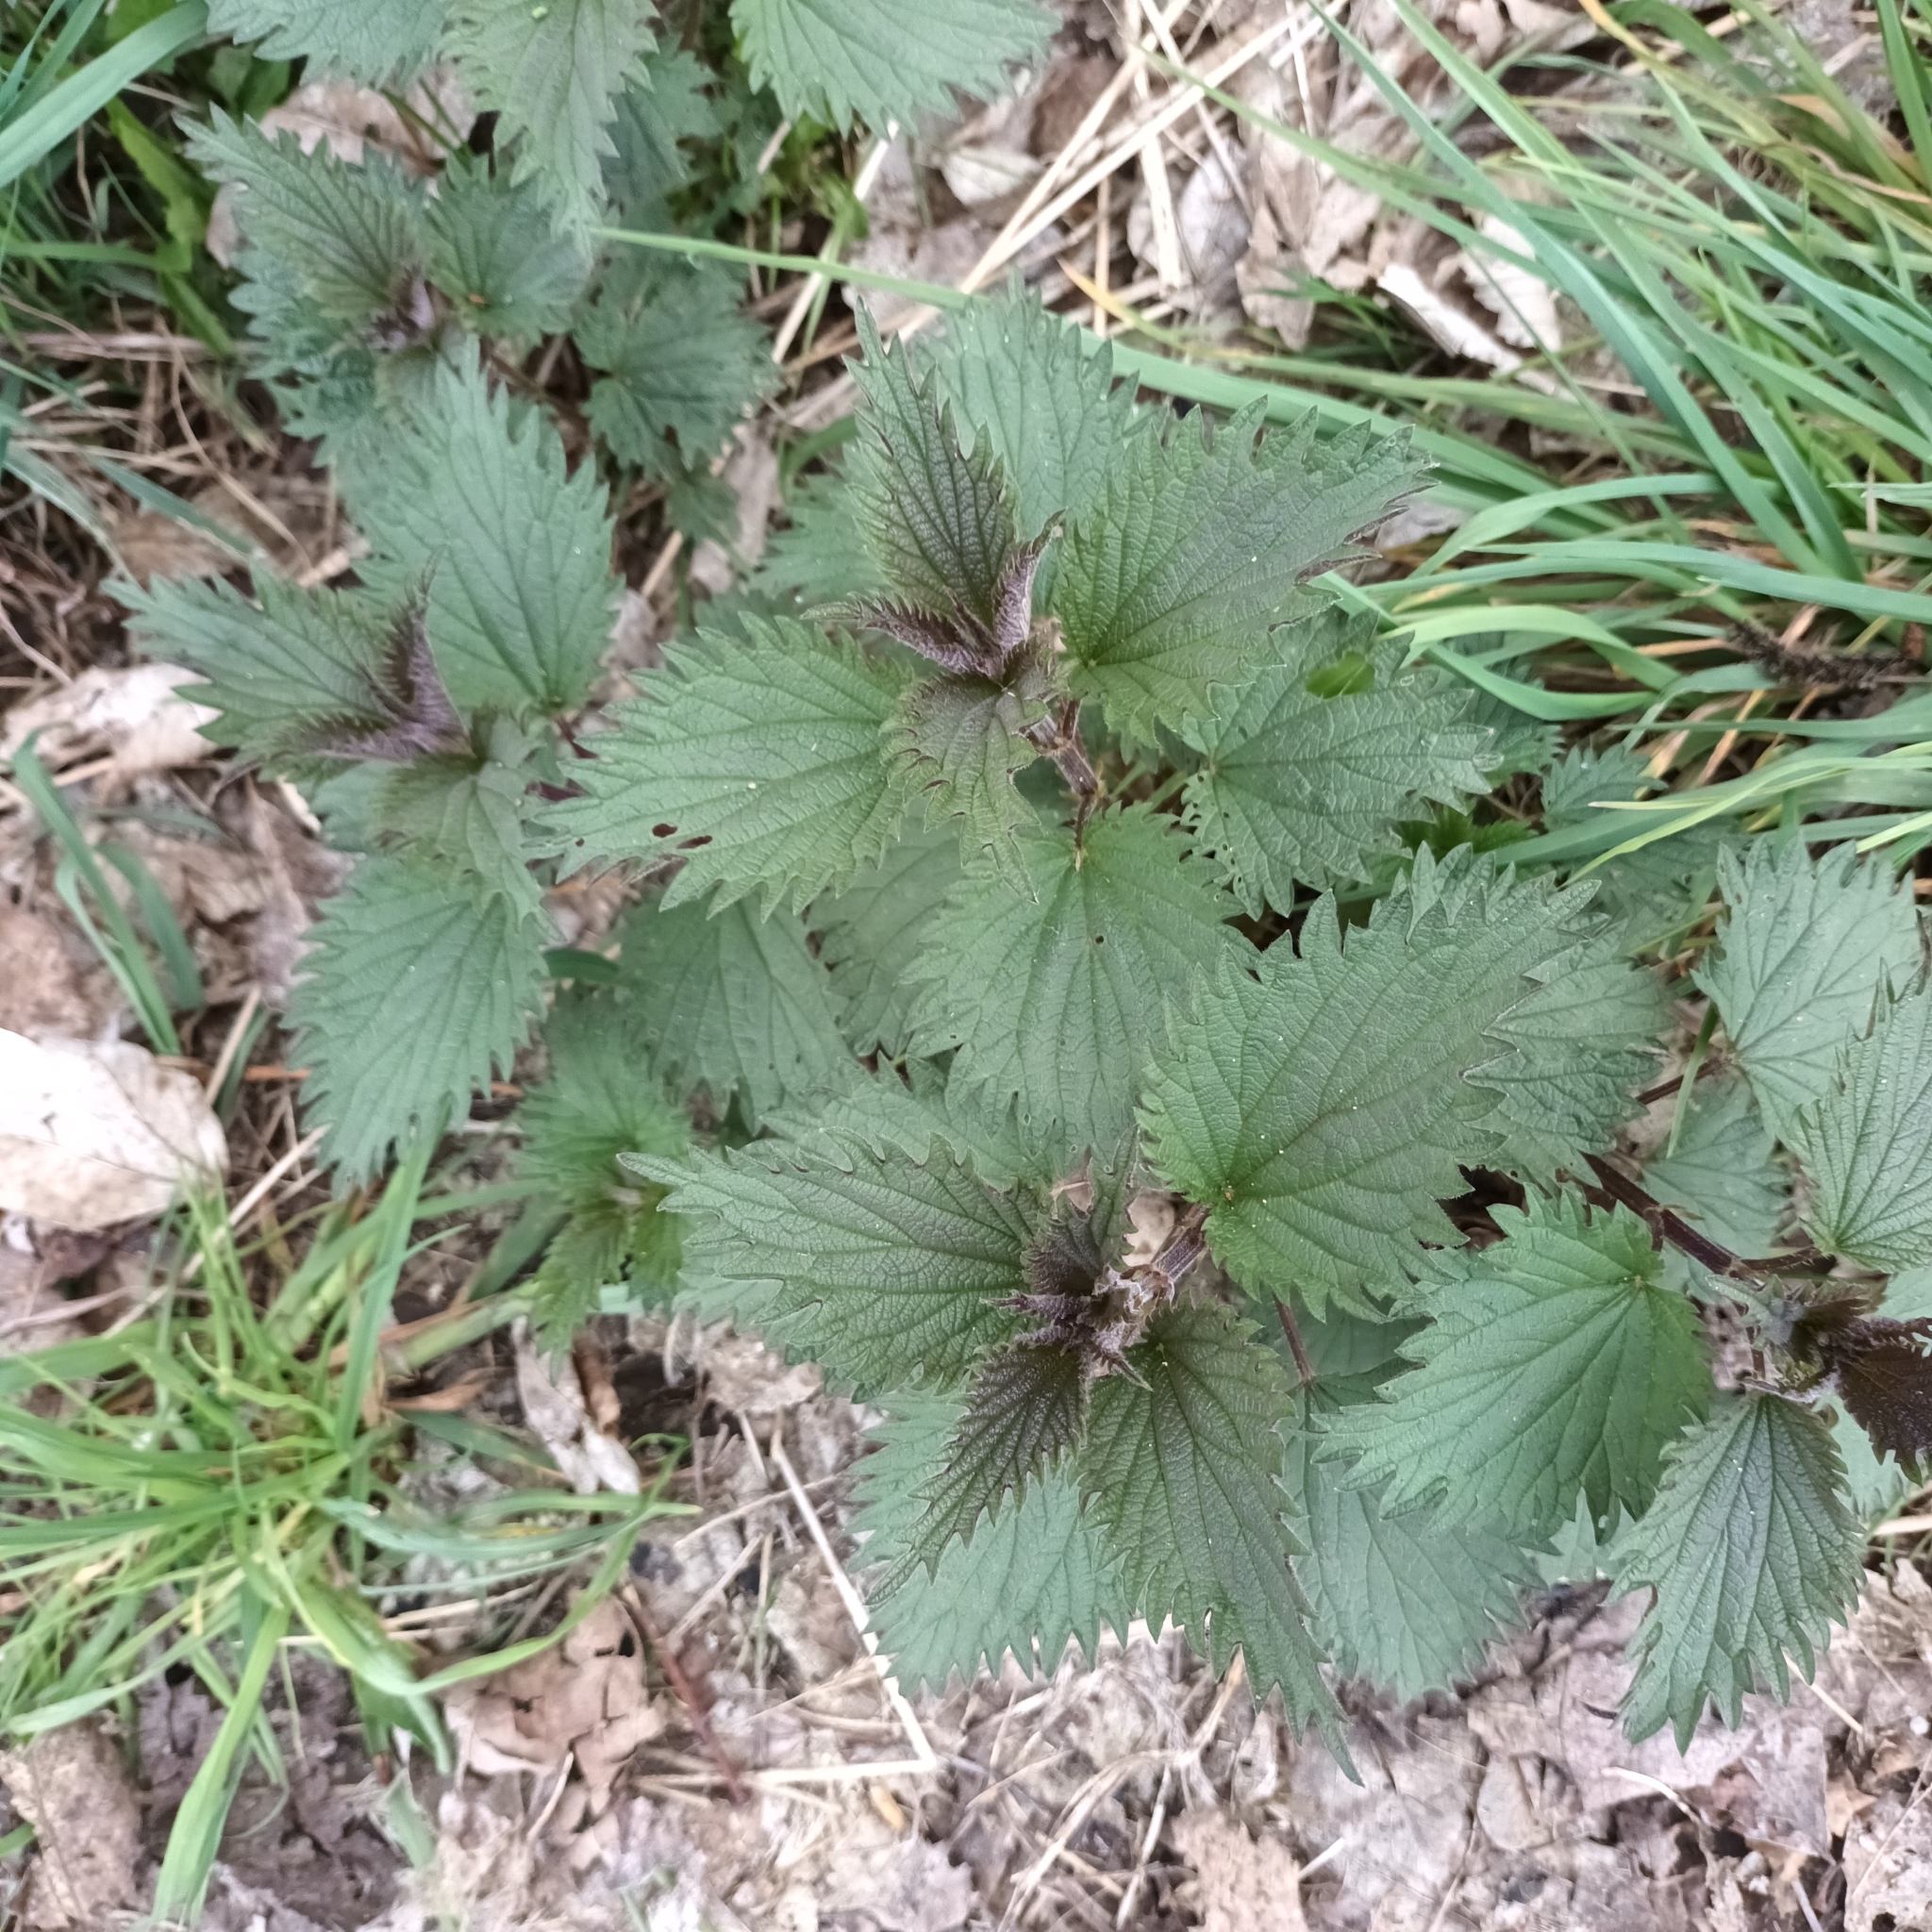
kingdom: Plantae
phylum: Tracheophyta
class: Magnoliopsida
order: Rosales
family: Urticaceae
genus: Urtica
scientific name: Urtica dioica
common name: Common nettle
